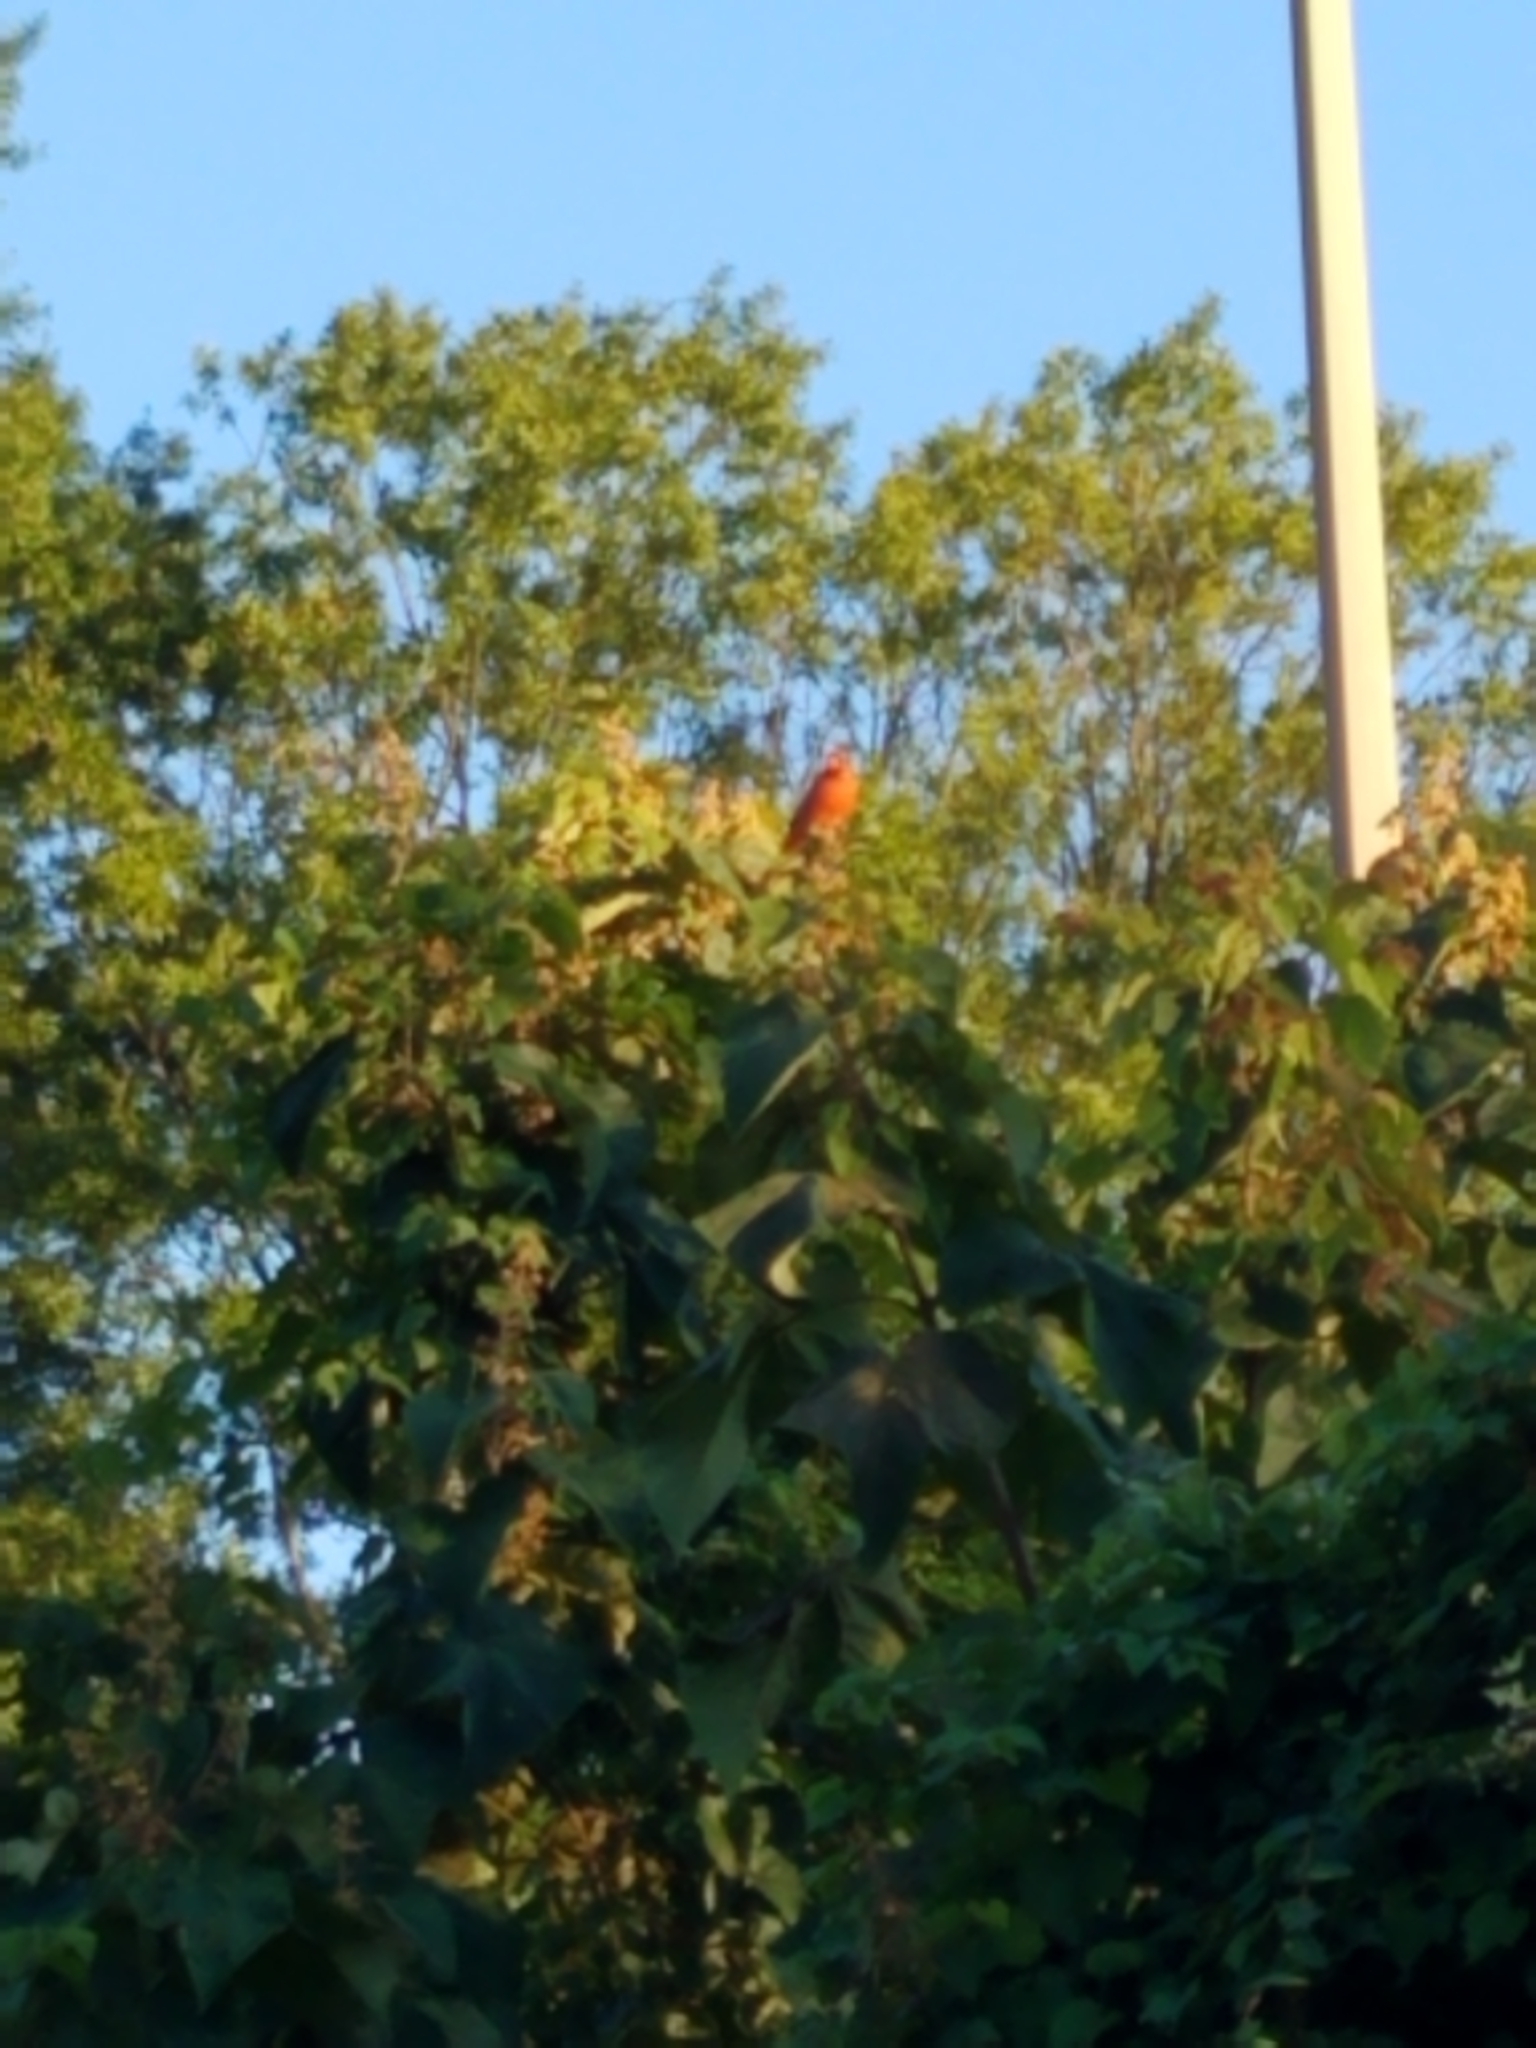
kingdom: Animalia
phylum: Chordata
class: Aves
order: Passeriformes
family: Cardinalidae
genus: Cardinalis
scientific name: Cardinalis cardinalis
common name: Northern cardinal
